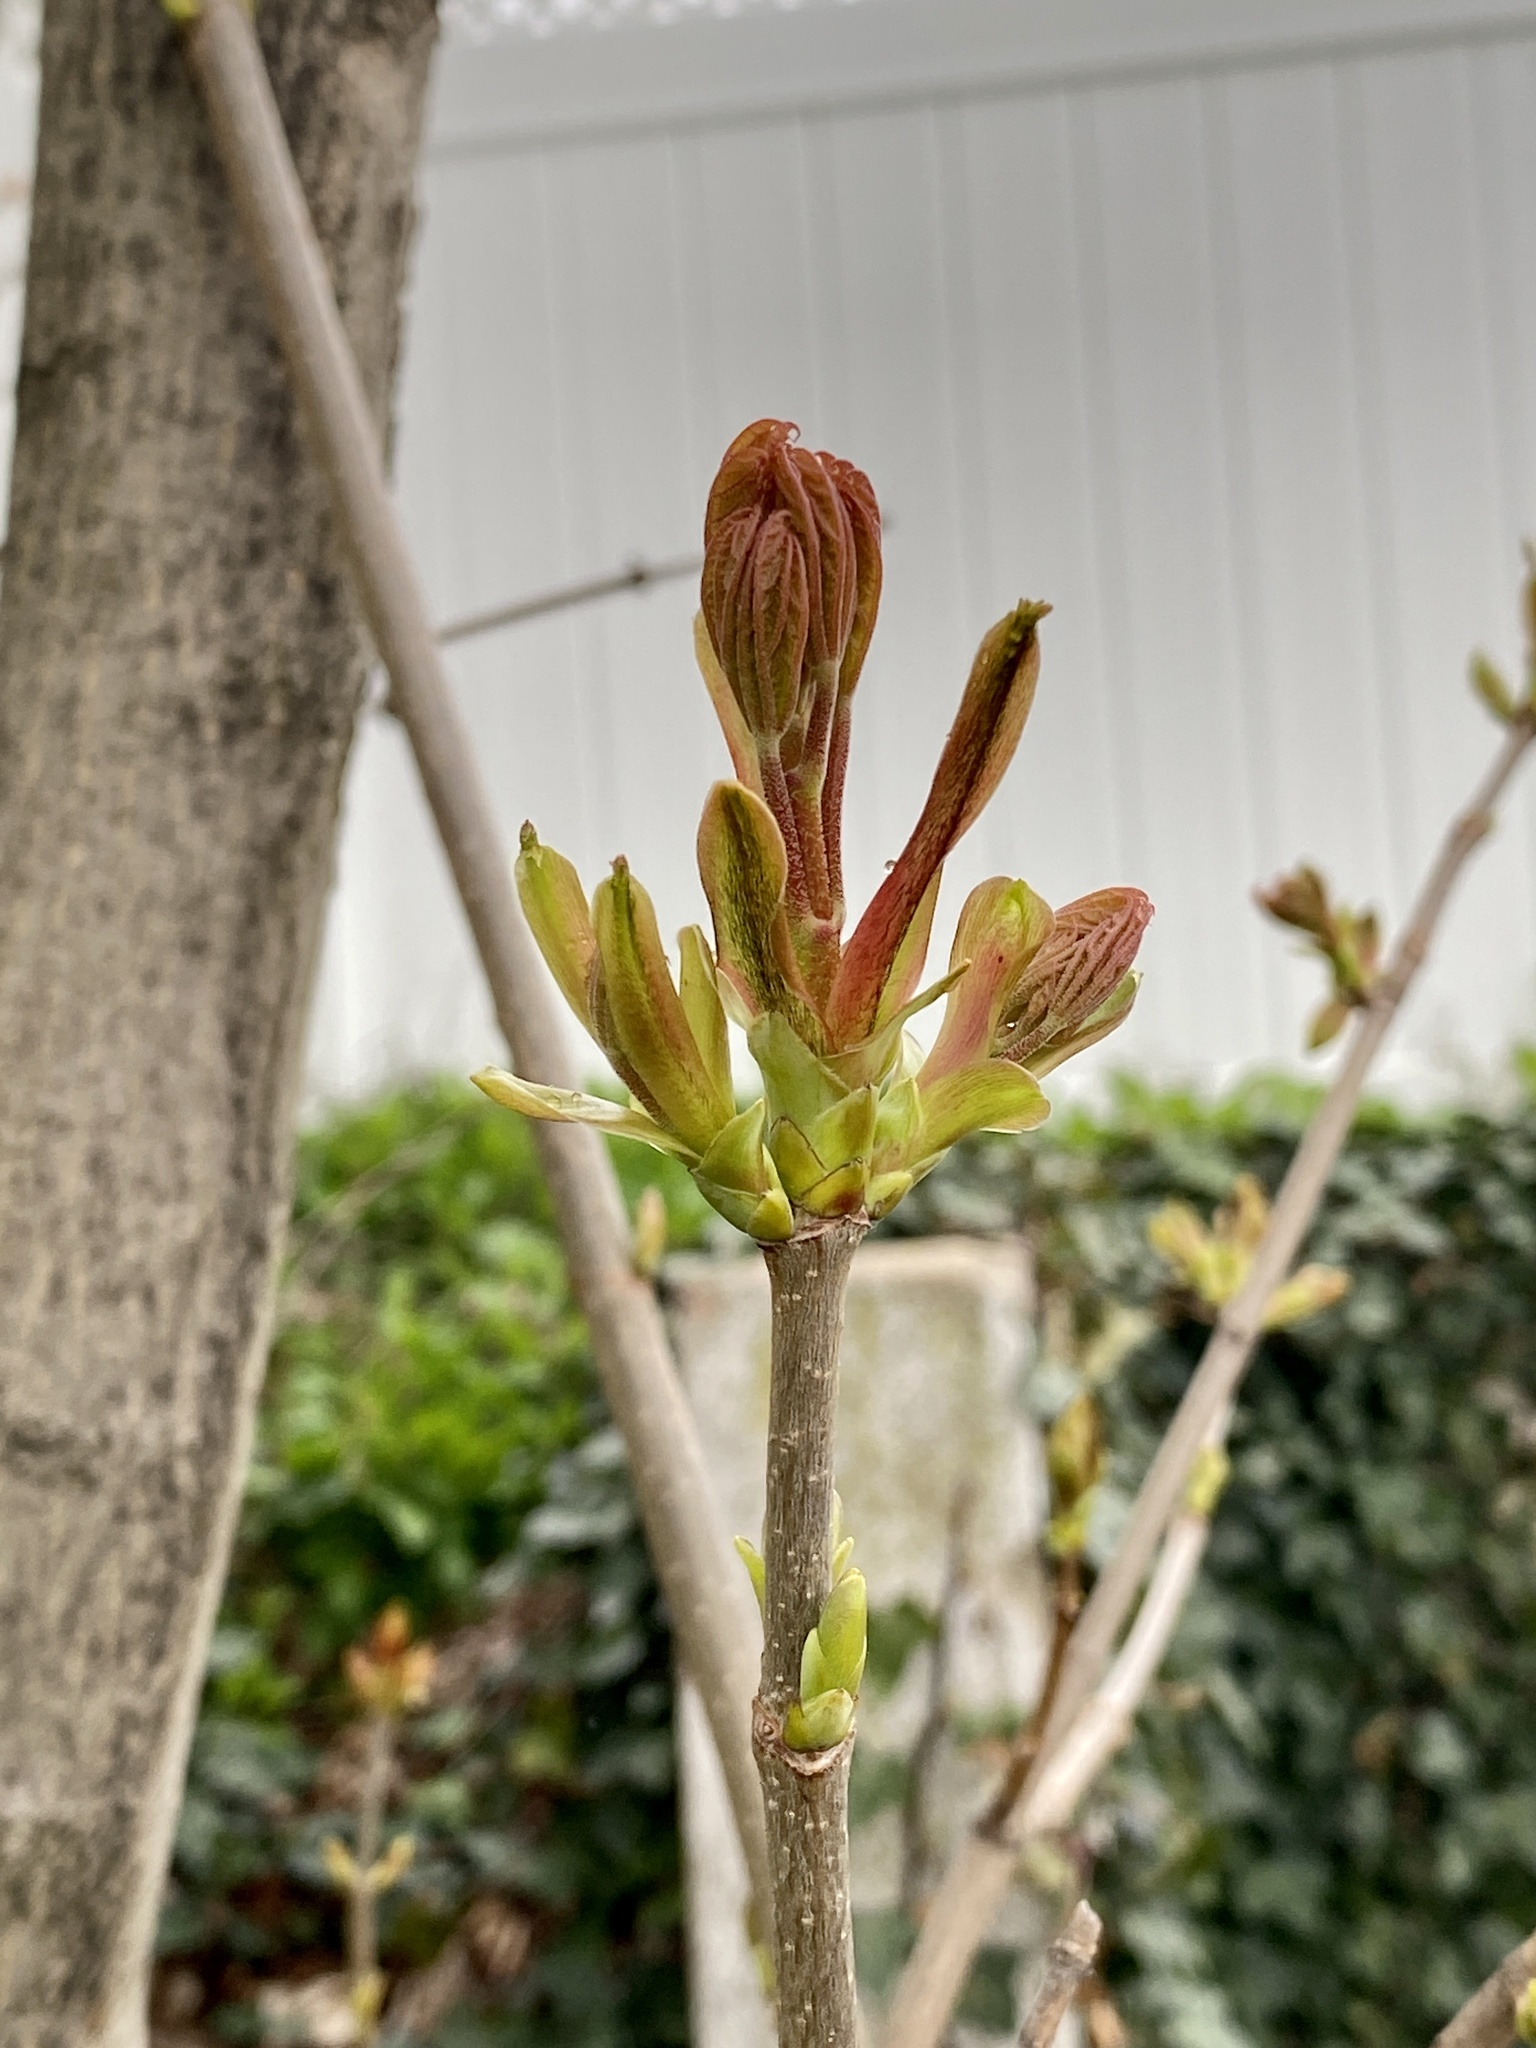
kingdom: Plantae
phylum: Tracheophyta
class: Magnoliopsida
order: Sapindales
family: Sapindaceae
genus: Acer
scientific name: Acer platanoides
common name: Norway maple
